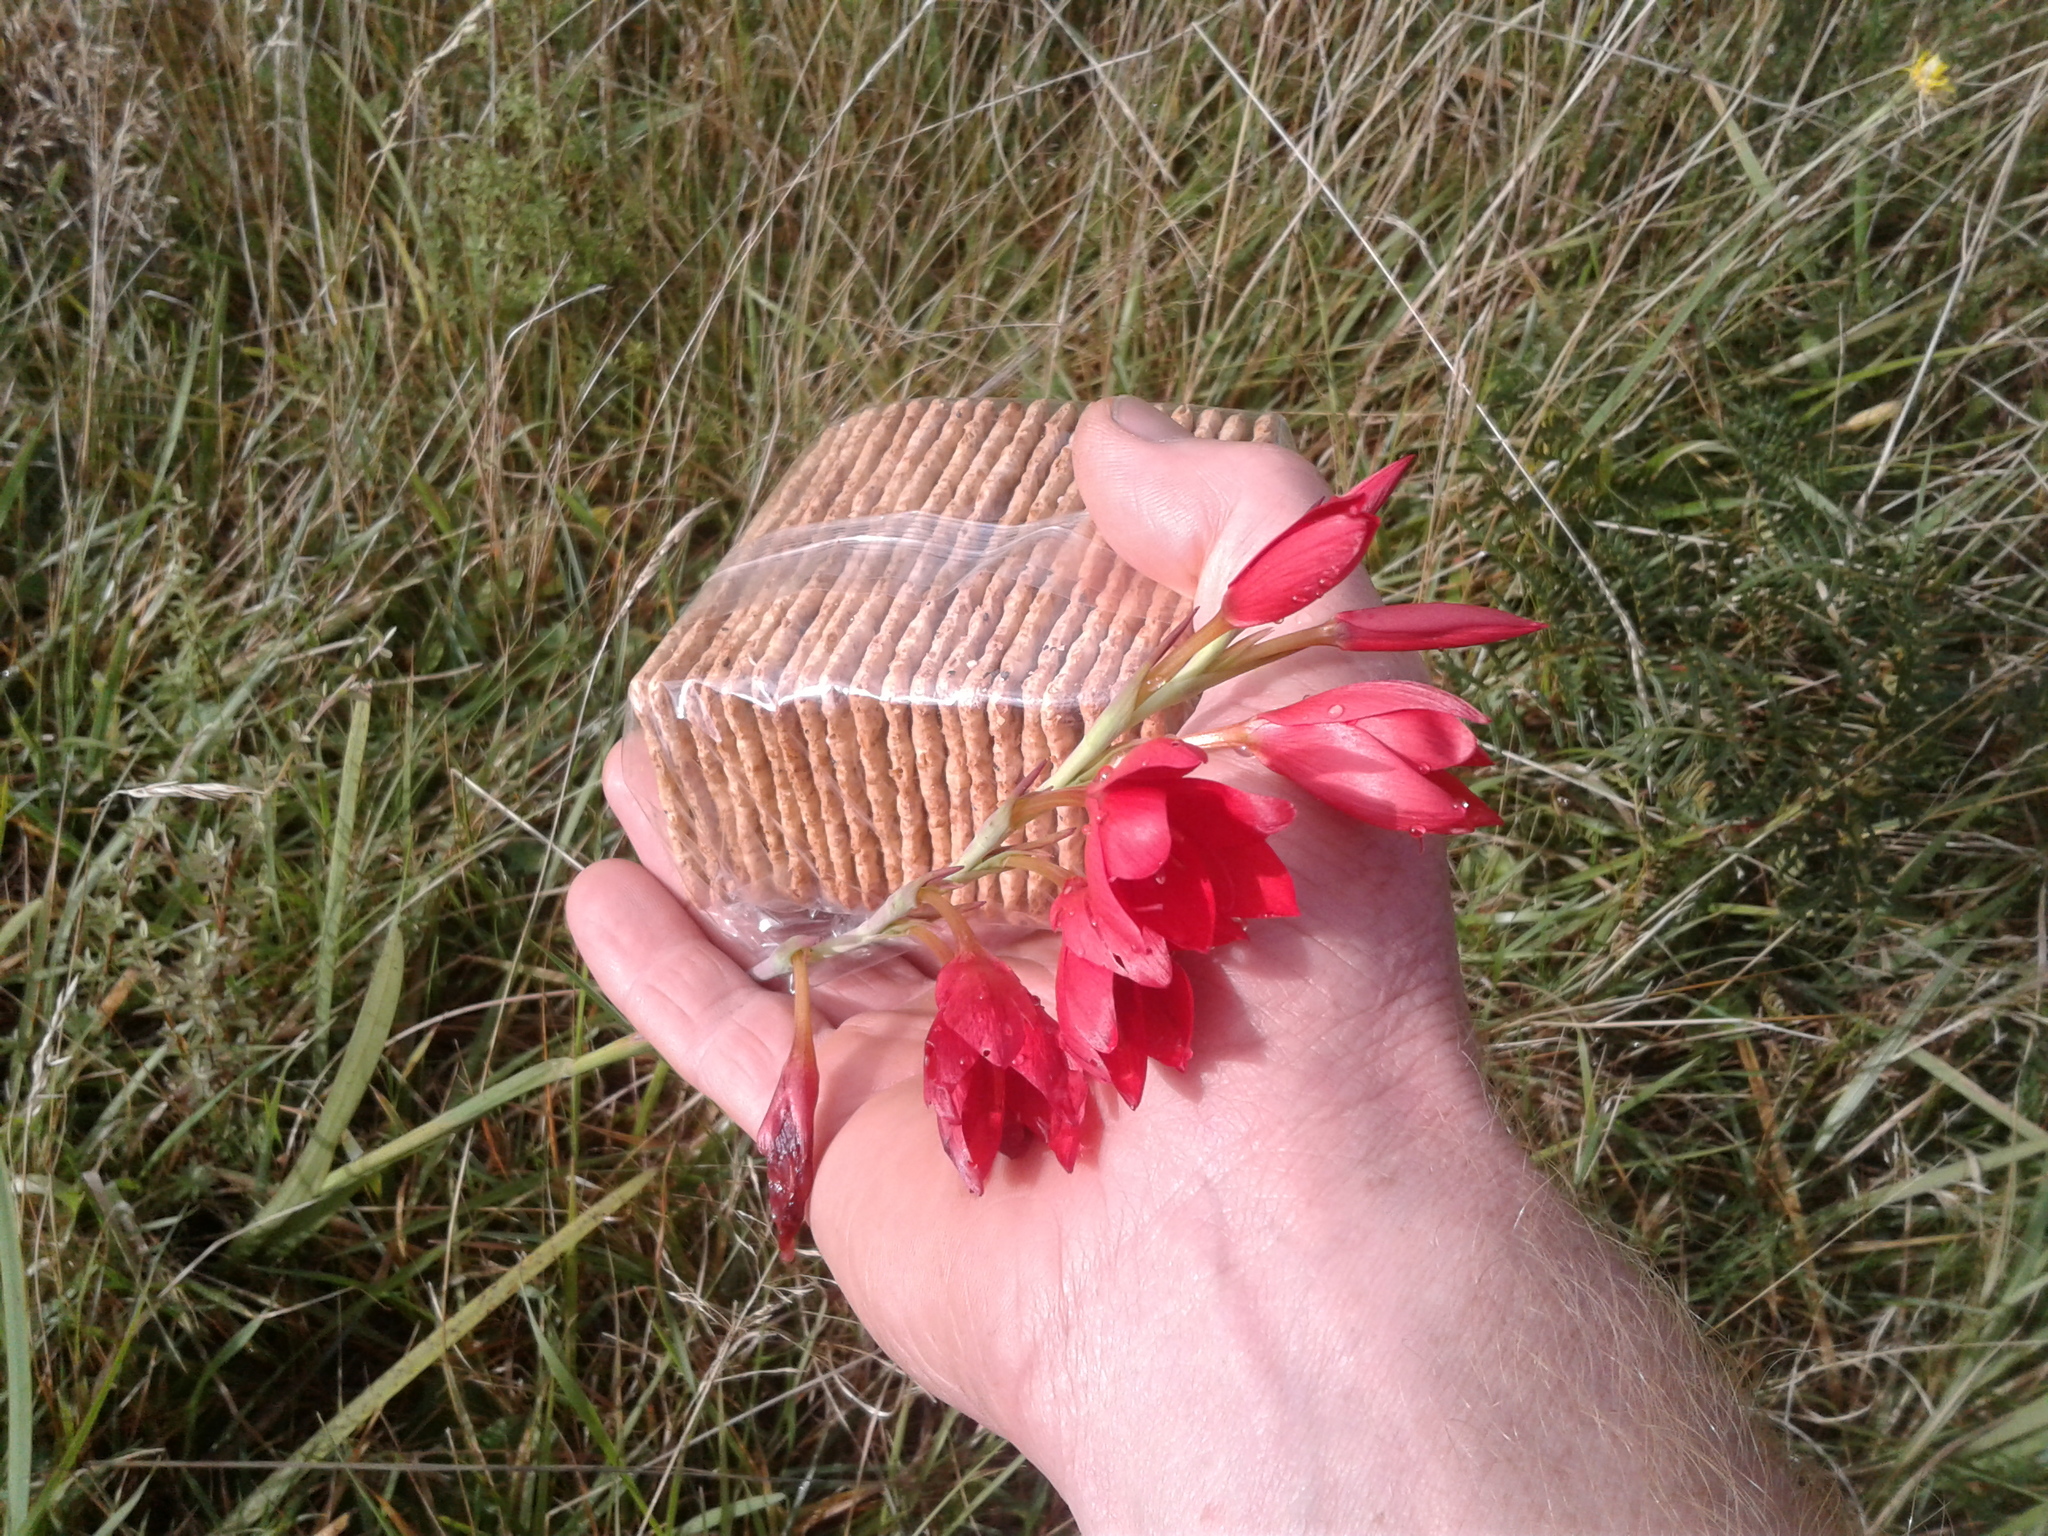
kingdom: Plantae
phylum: Tracheophyta
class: Liliopsida
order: Asparagales
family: Iridaceae
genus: Hesperantha
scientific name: Hesperantha coccinea
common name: River-lily
